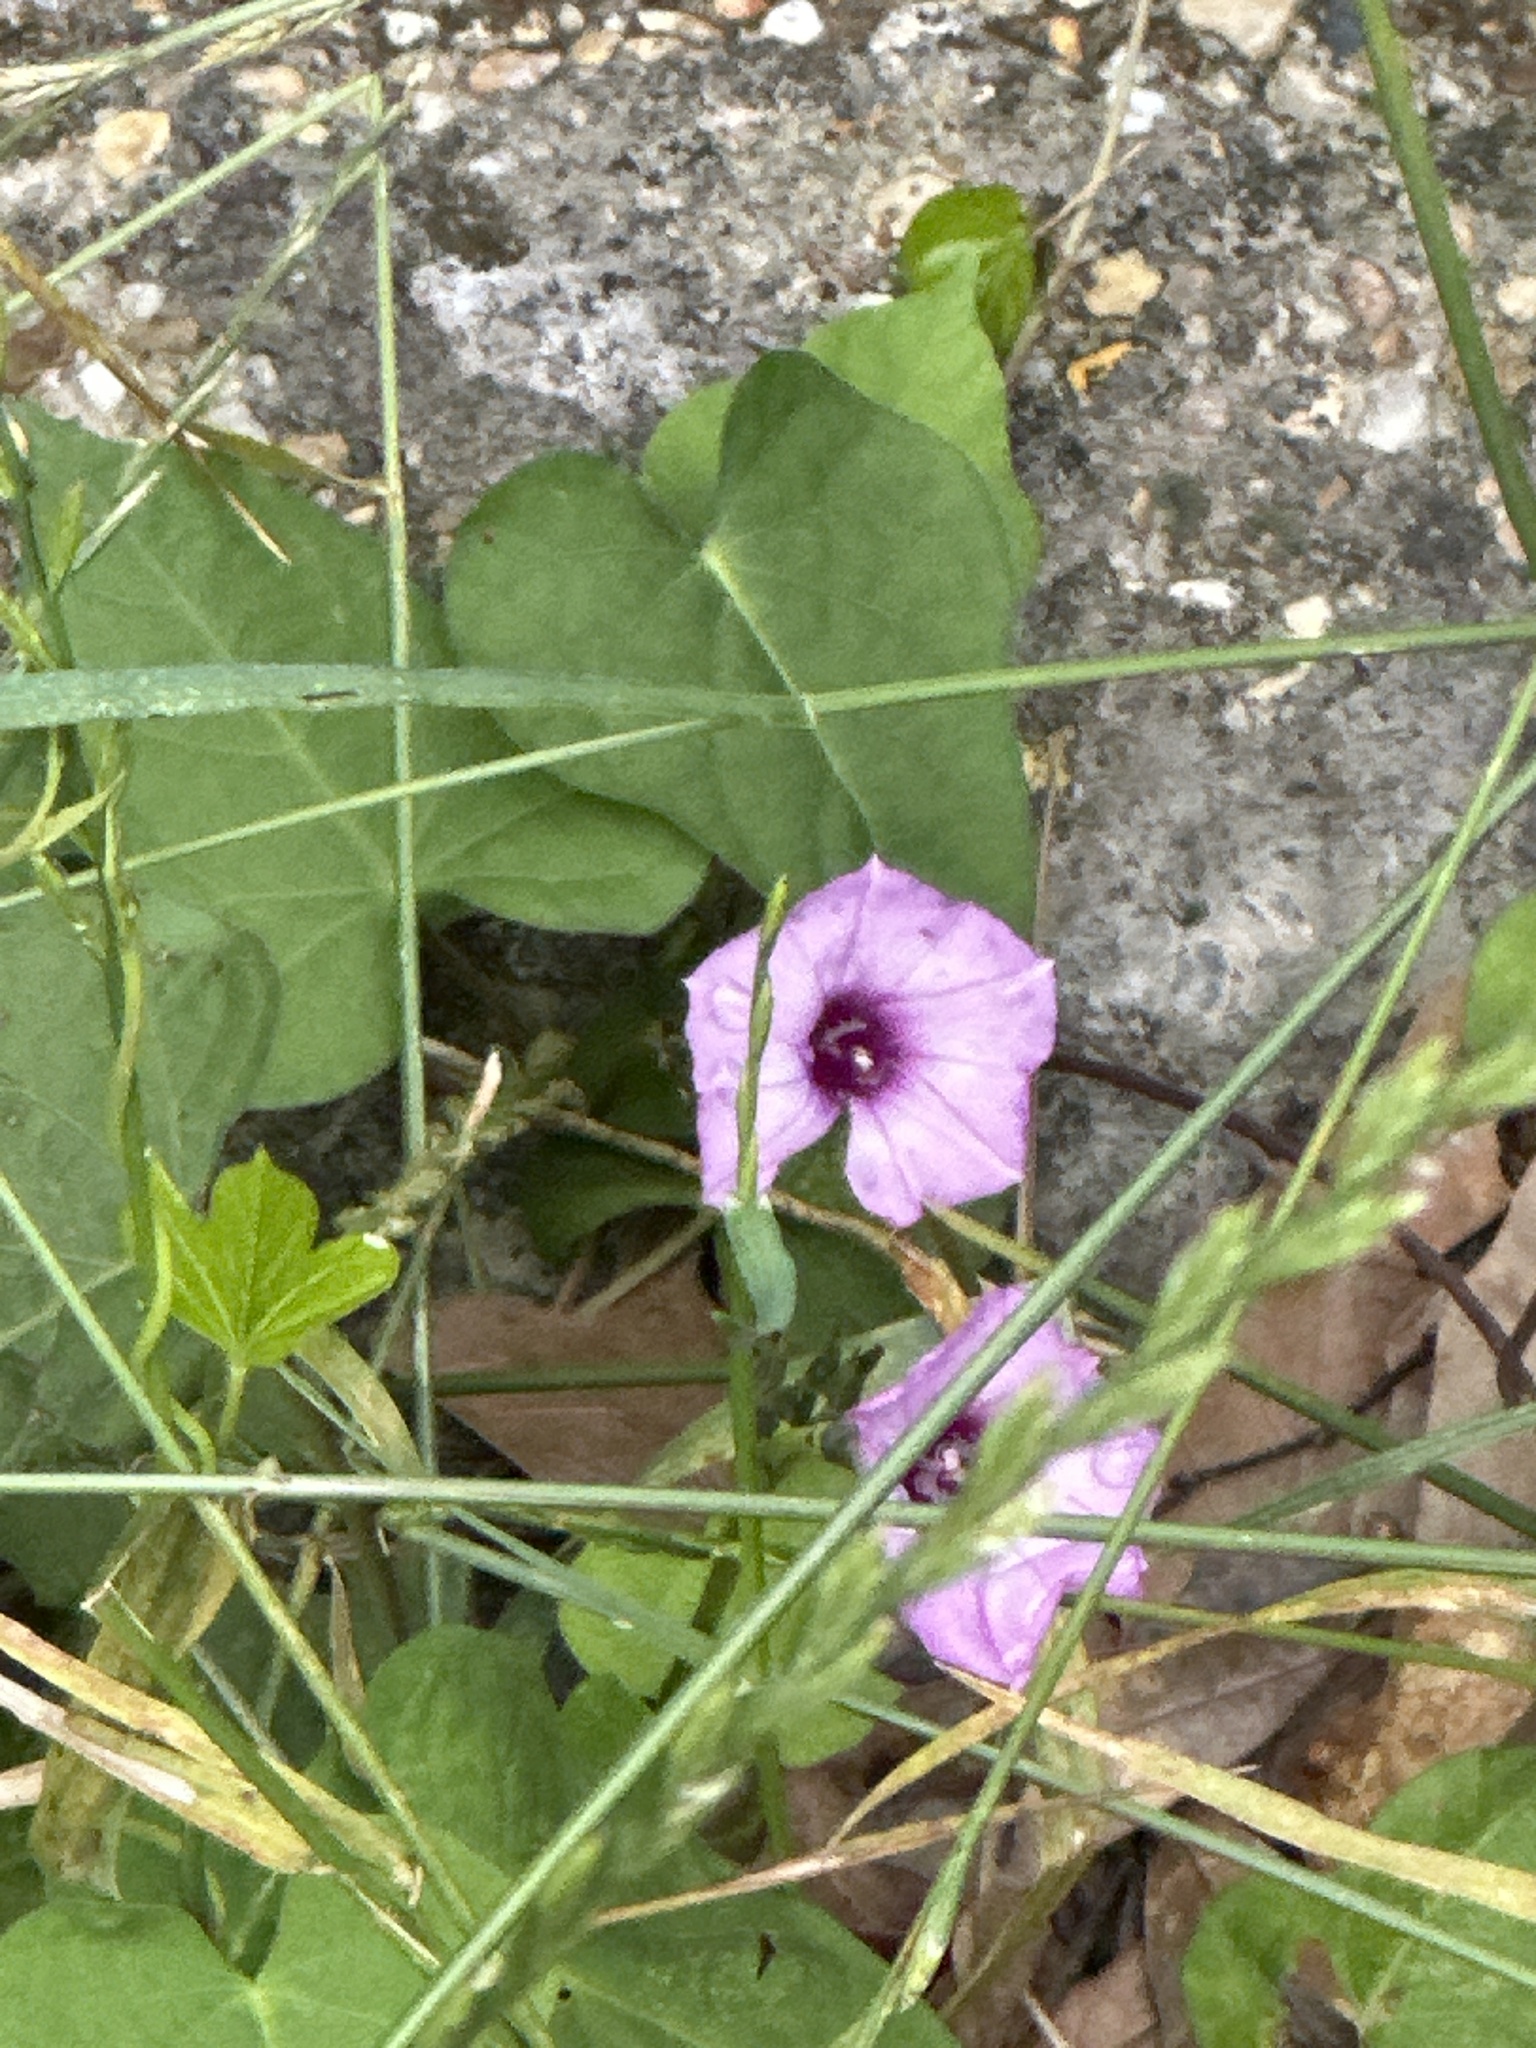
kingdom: Plantae
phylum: Tracheophyta
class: Magnoliopsida
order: Solanales
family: Convolvulaceae
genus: Ipomoea
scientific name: Ipomoea cordatotriloba
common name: Cotton morning glory
